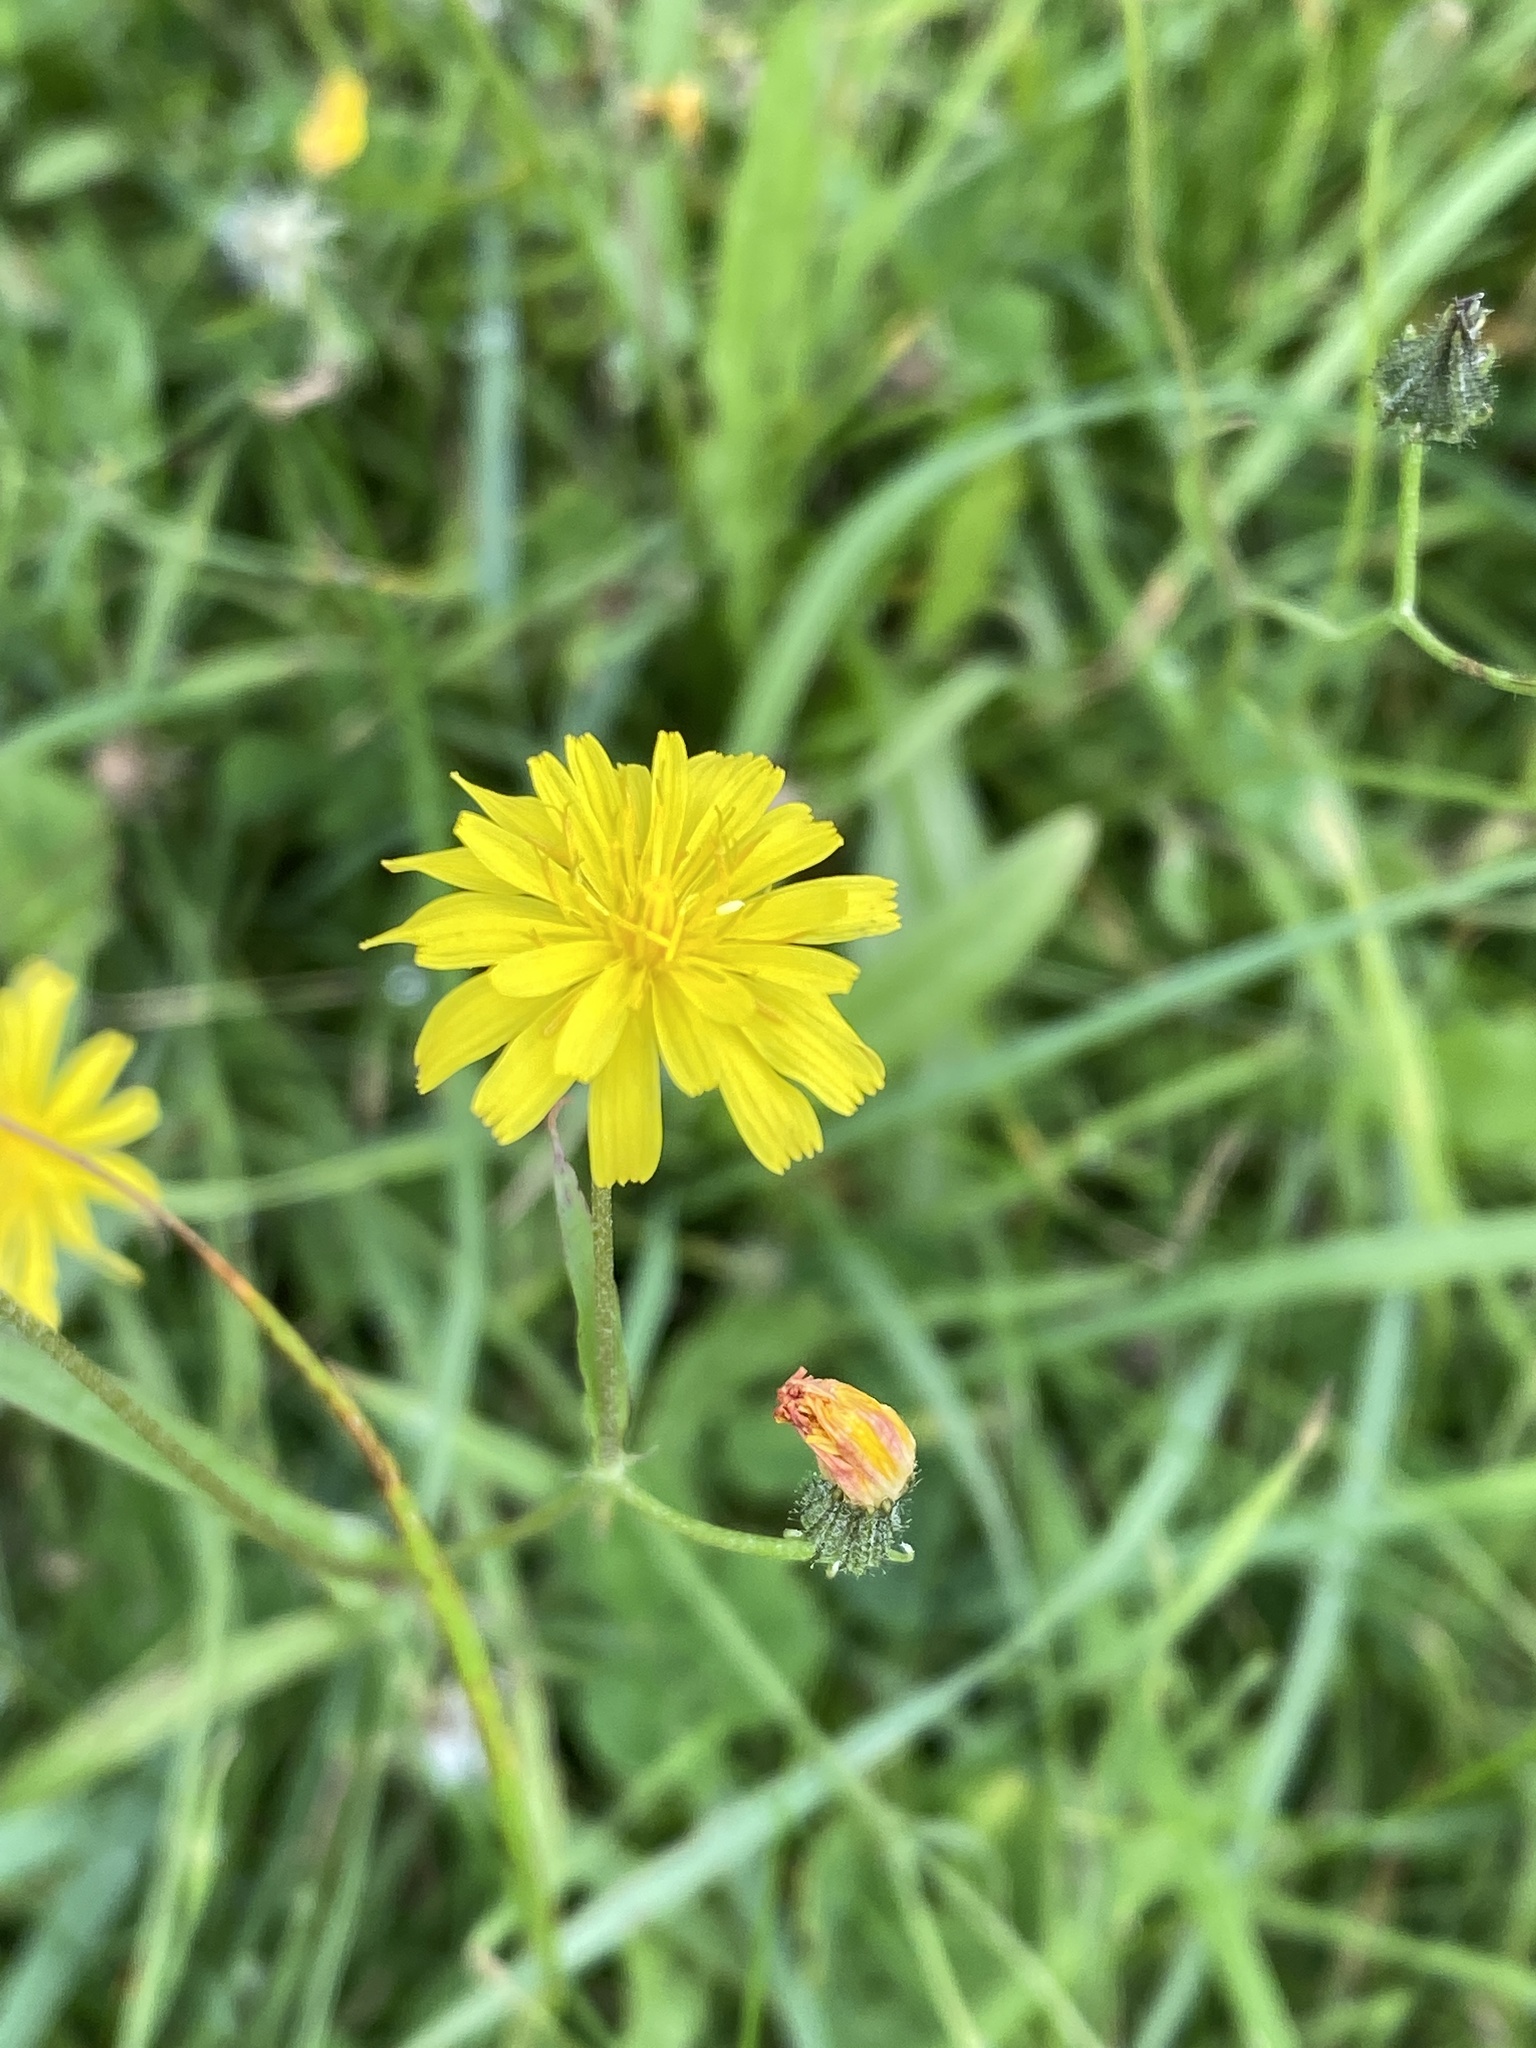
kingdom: Plantae
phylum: Tracheophyta
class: Magnoliopsida
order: Asterales
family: Asteraceae
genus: Crepis
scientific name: Crepis capillaris
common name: Smooth hawksbeard
